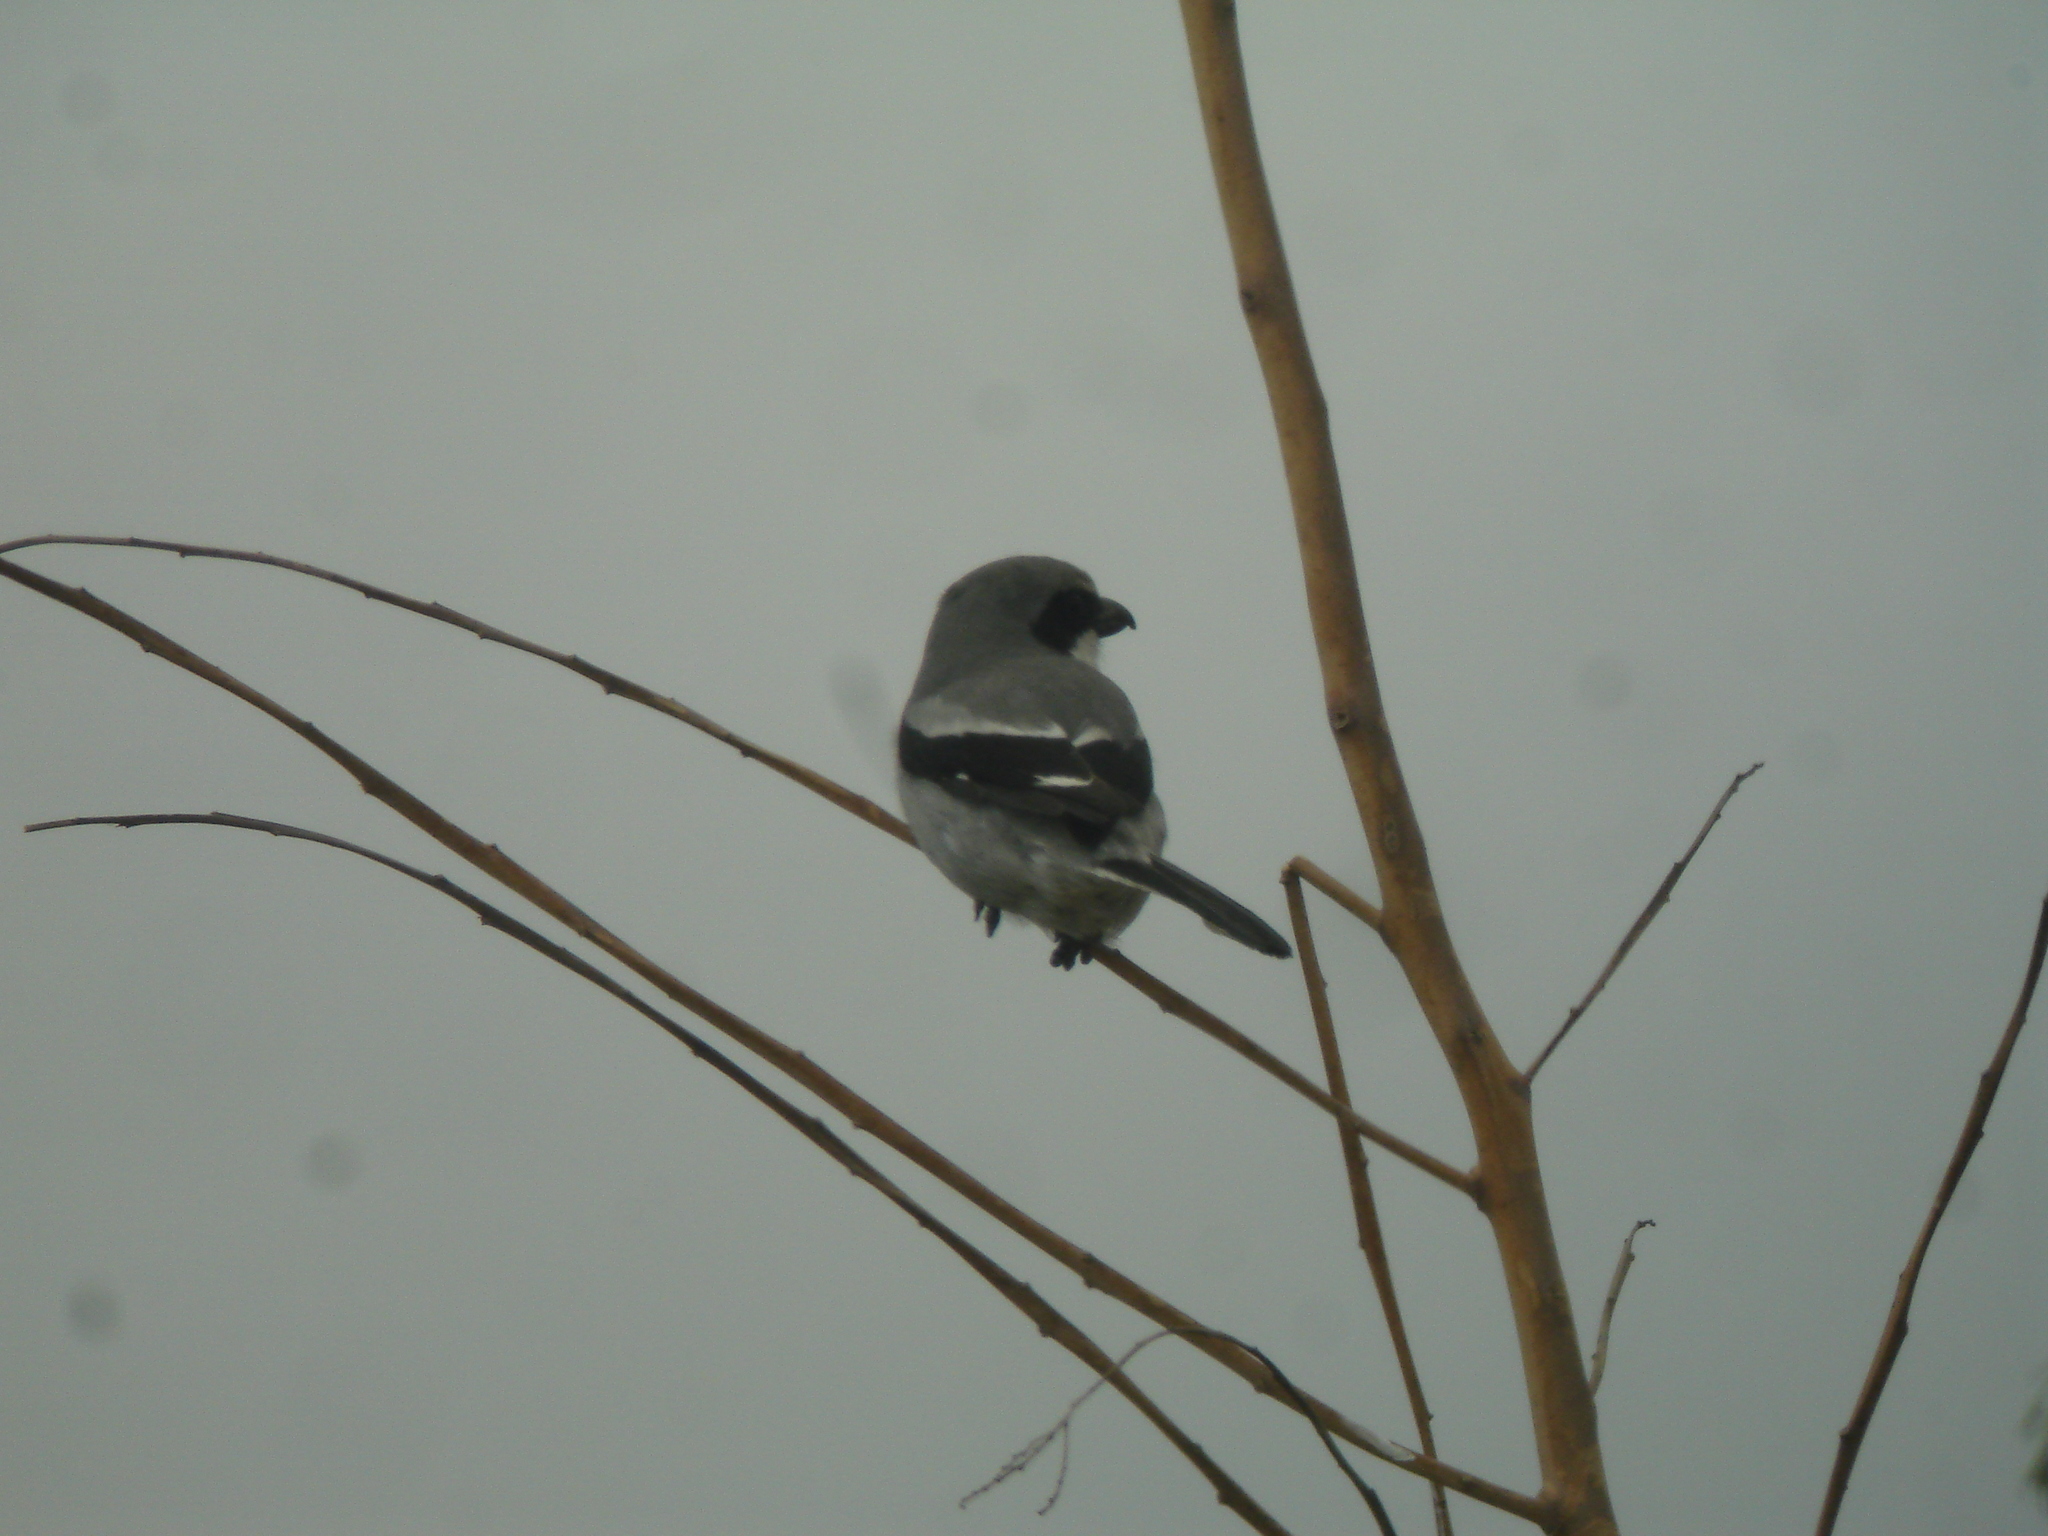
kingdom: Animalia
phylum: Chordata
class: Aves
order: Passeriformes
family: Laniidae
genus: Lanius
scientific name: Lanius excubitor
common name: Great grey shrike
